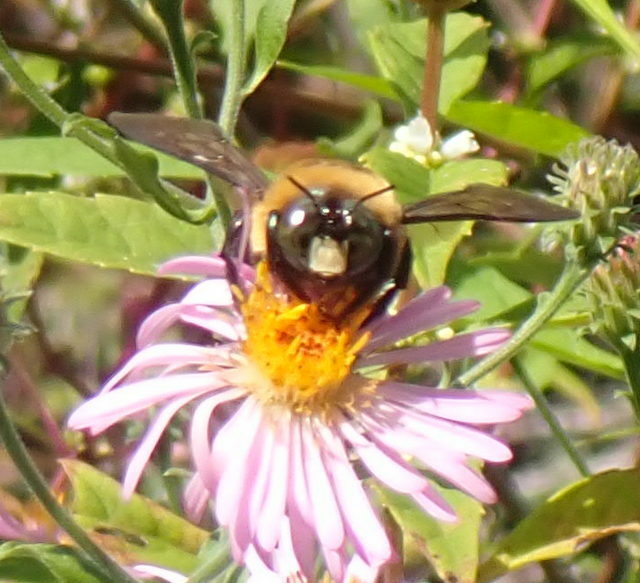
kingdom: Animalia
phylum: Arthropoda
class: Insecta
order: Hymenoptera
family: Apidae
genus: Xylocopa
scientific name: Xylocopa virginica
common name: Carpenter bee
